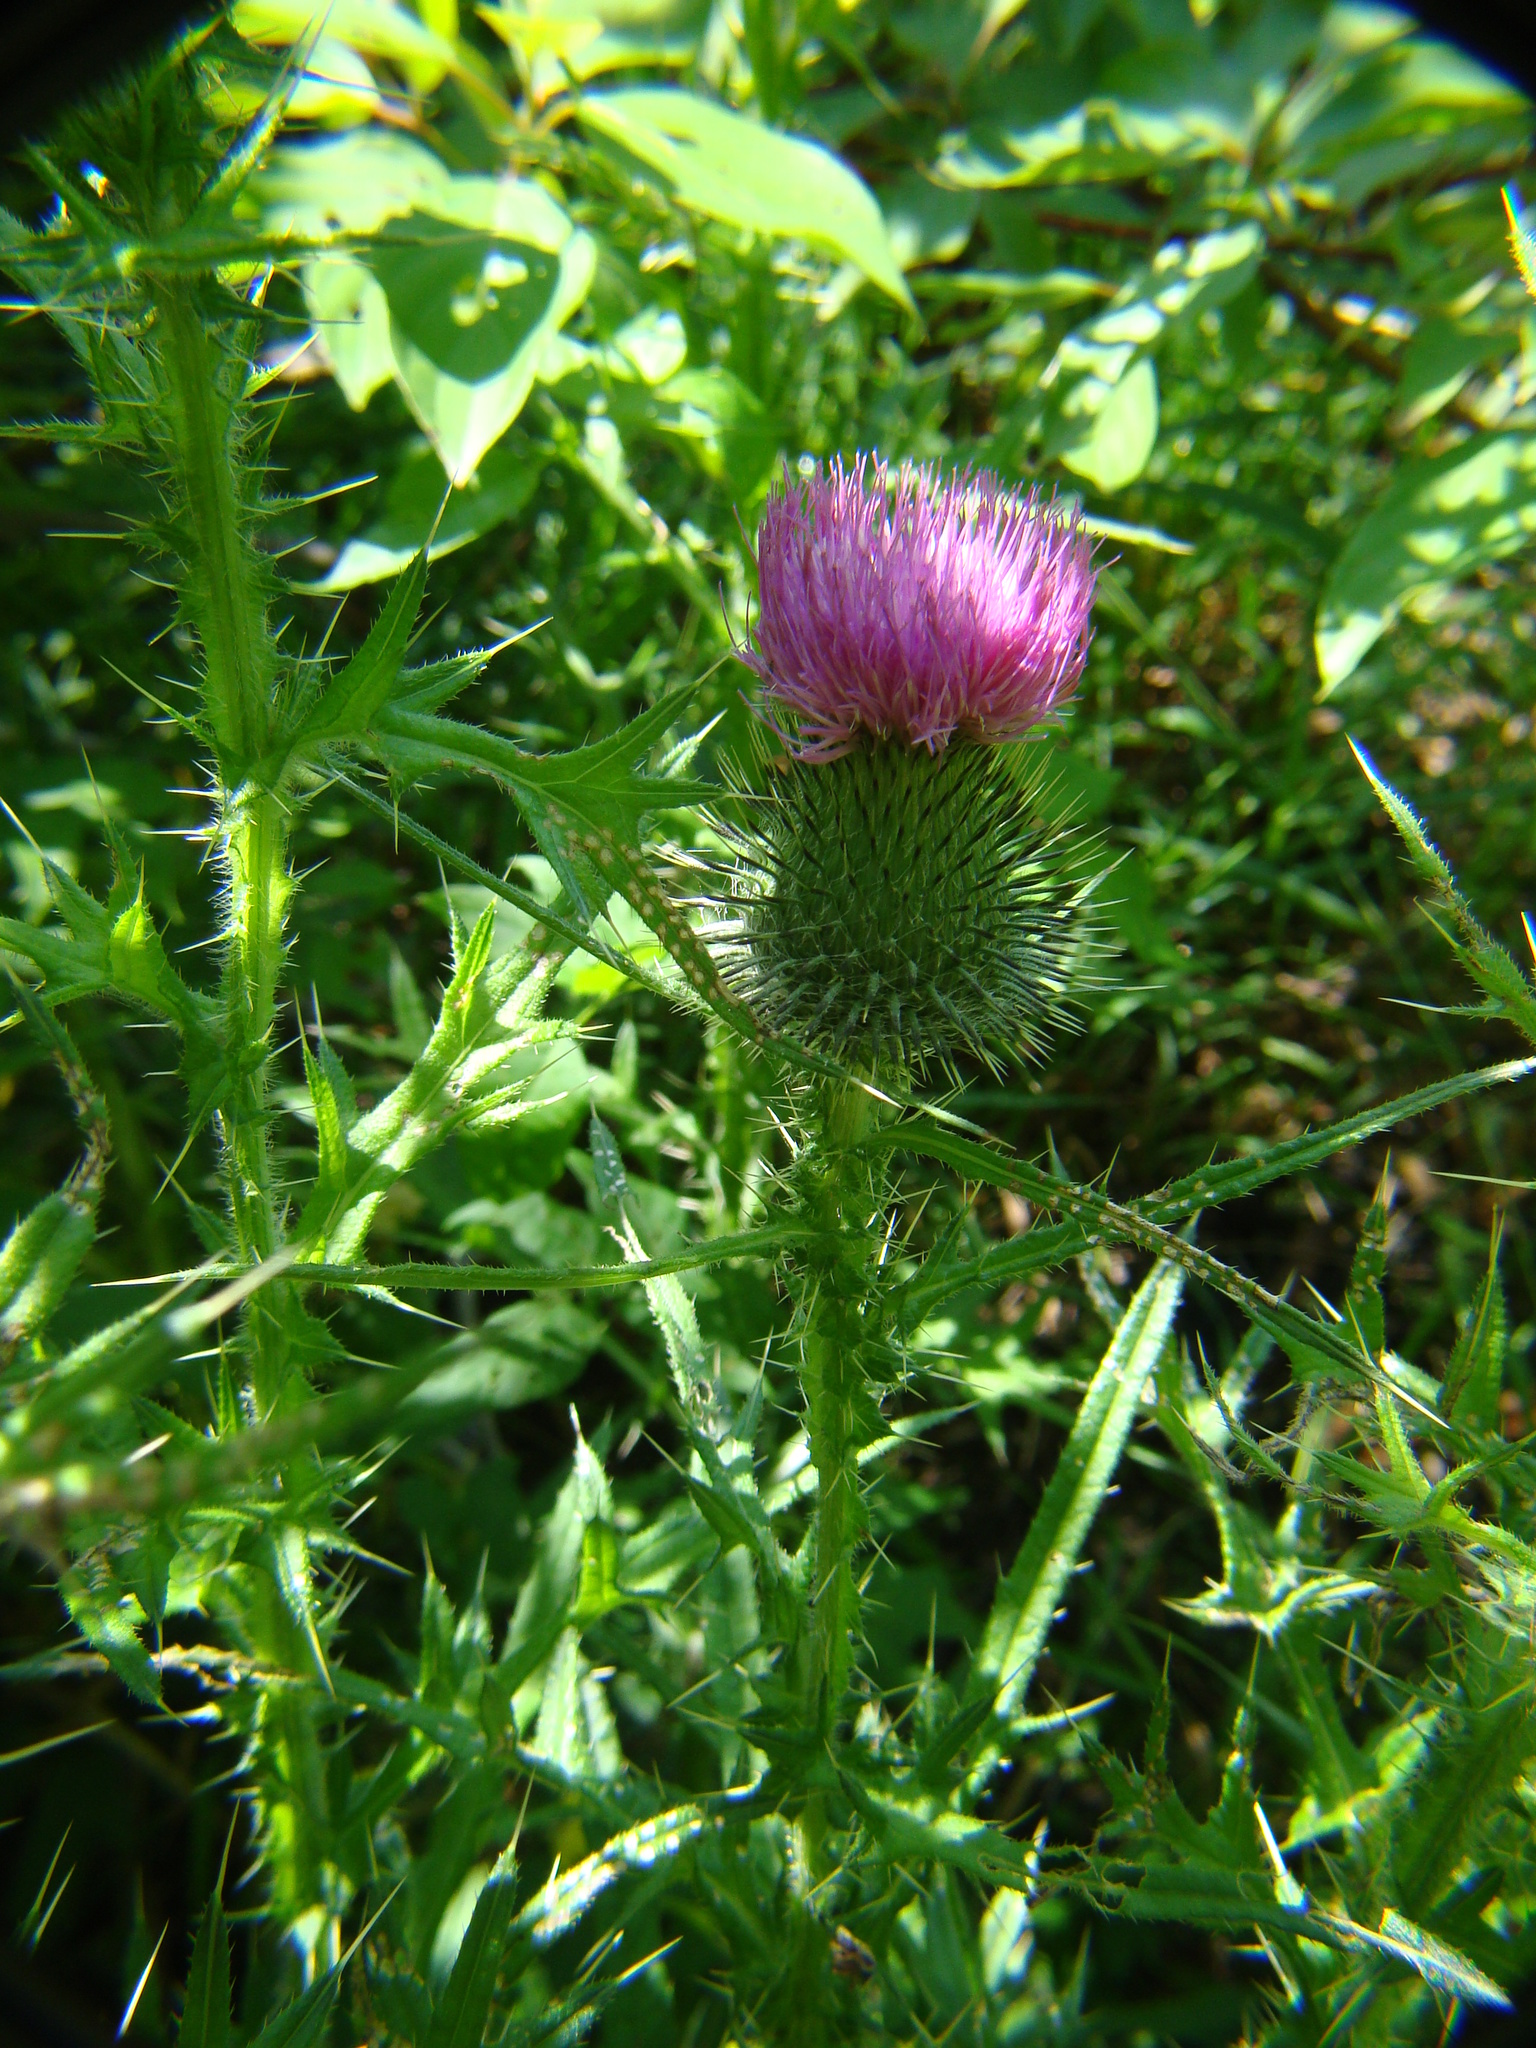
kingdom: Plantae
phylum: Tracheophyta
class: Magnoliopsida
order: Asterales
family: Asteraceae
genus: Cirsium
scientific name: Cirsium vulgare
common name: Bull thistle
